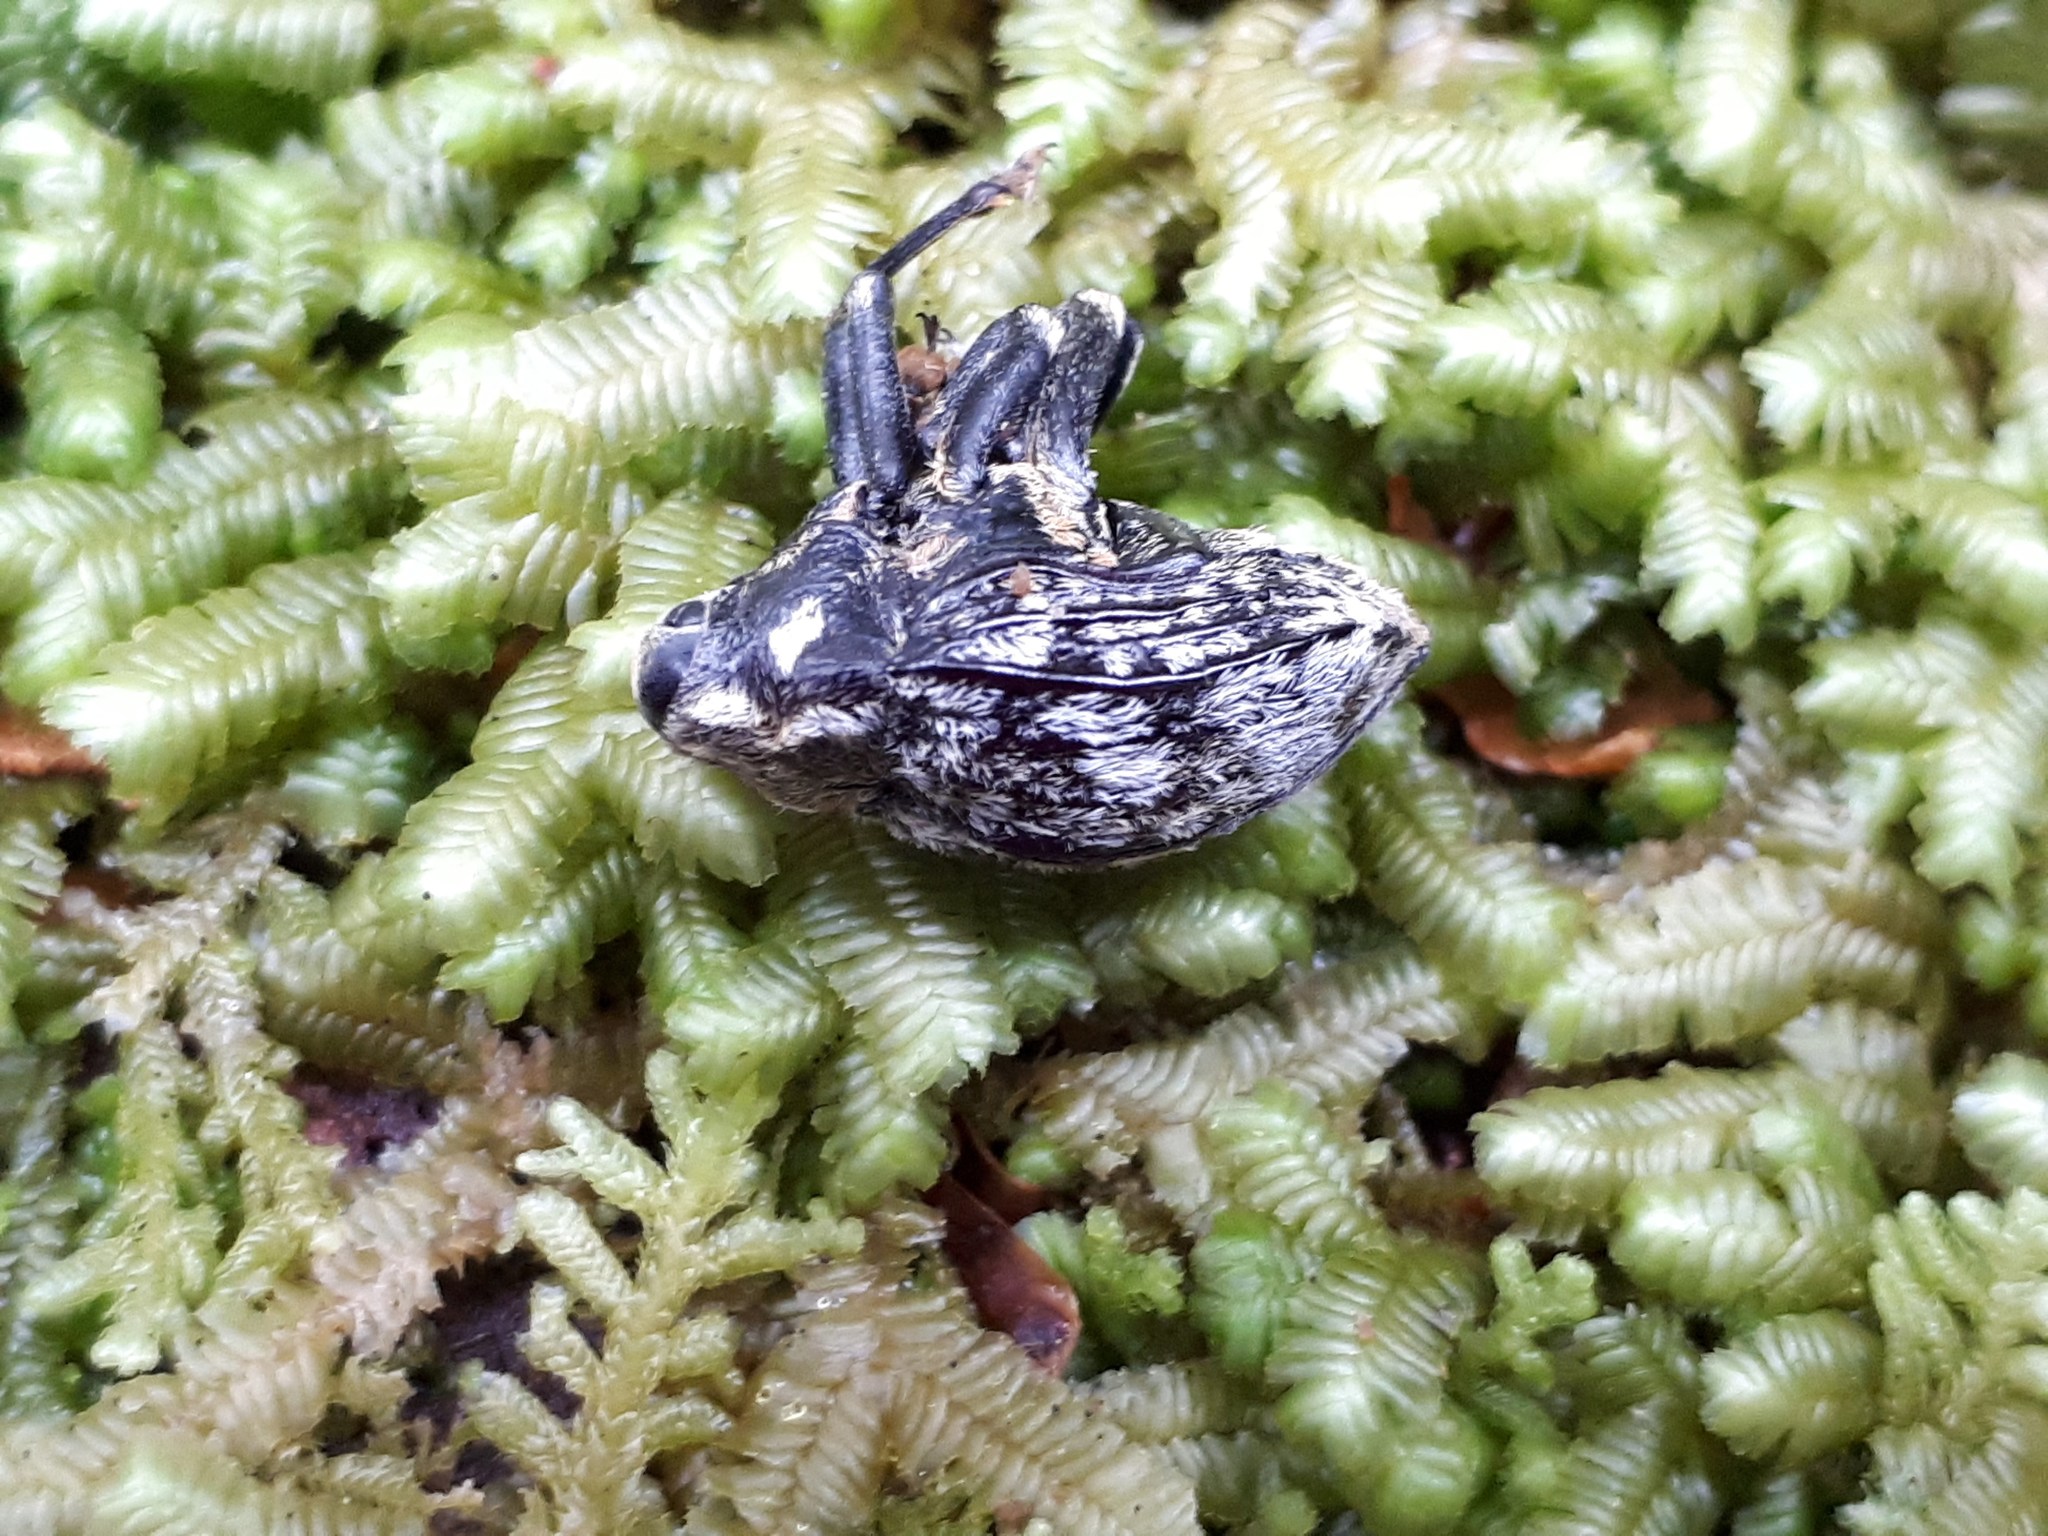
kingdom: Animalia
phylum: Arthropoda
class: Insecta
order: Coleoptera
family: Curculionidae
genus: Rhynchodes
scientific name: Rhynchodes ursus
